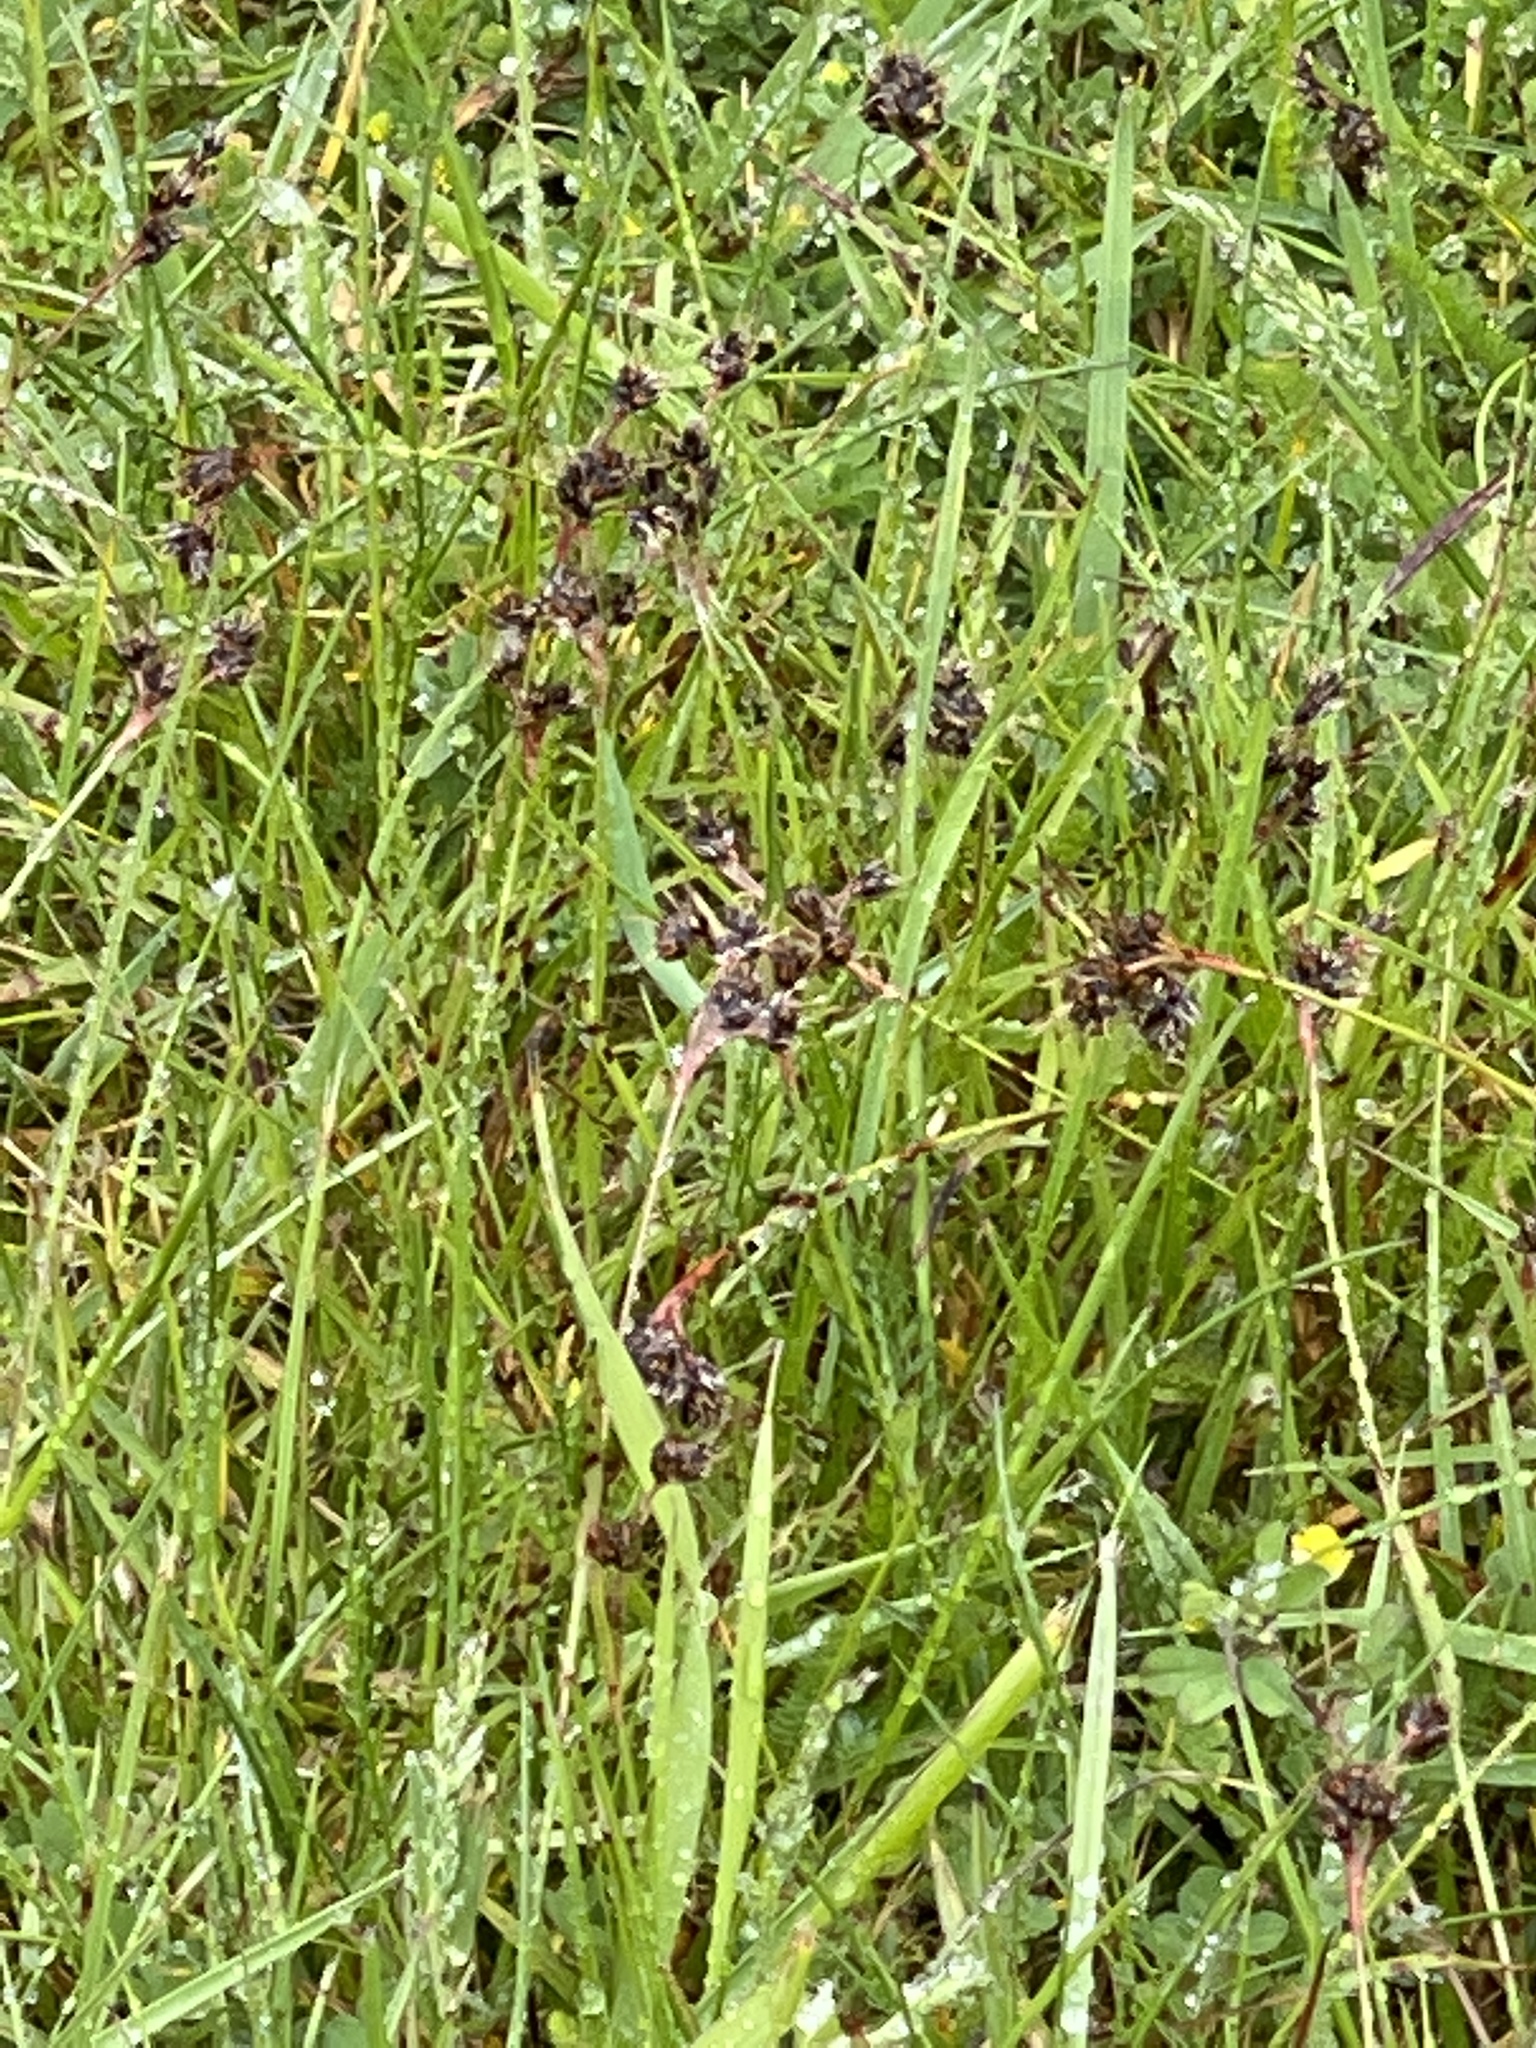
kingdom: Plantae
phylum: Tracheophyta
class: Liliopsida
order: Poales
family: Juncaceae
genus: Luzula
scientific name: Luzula campestris
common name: Field wood-rush
